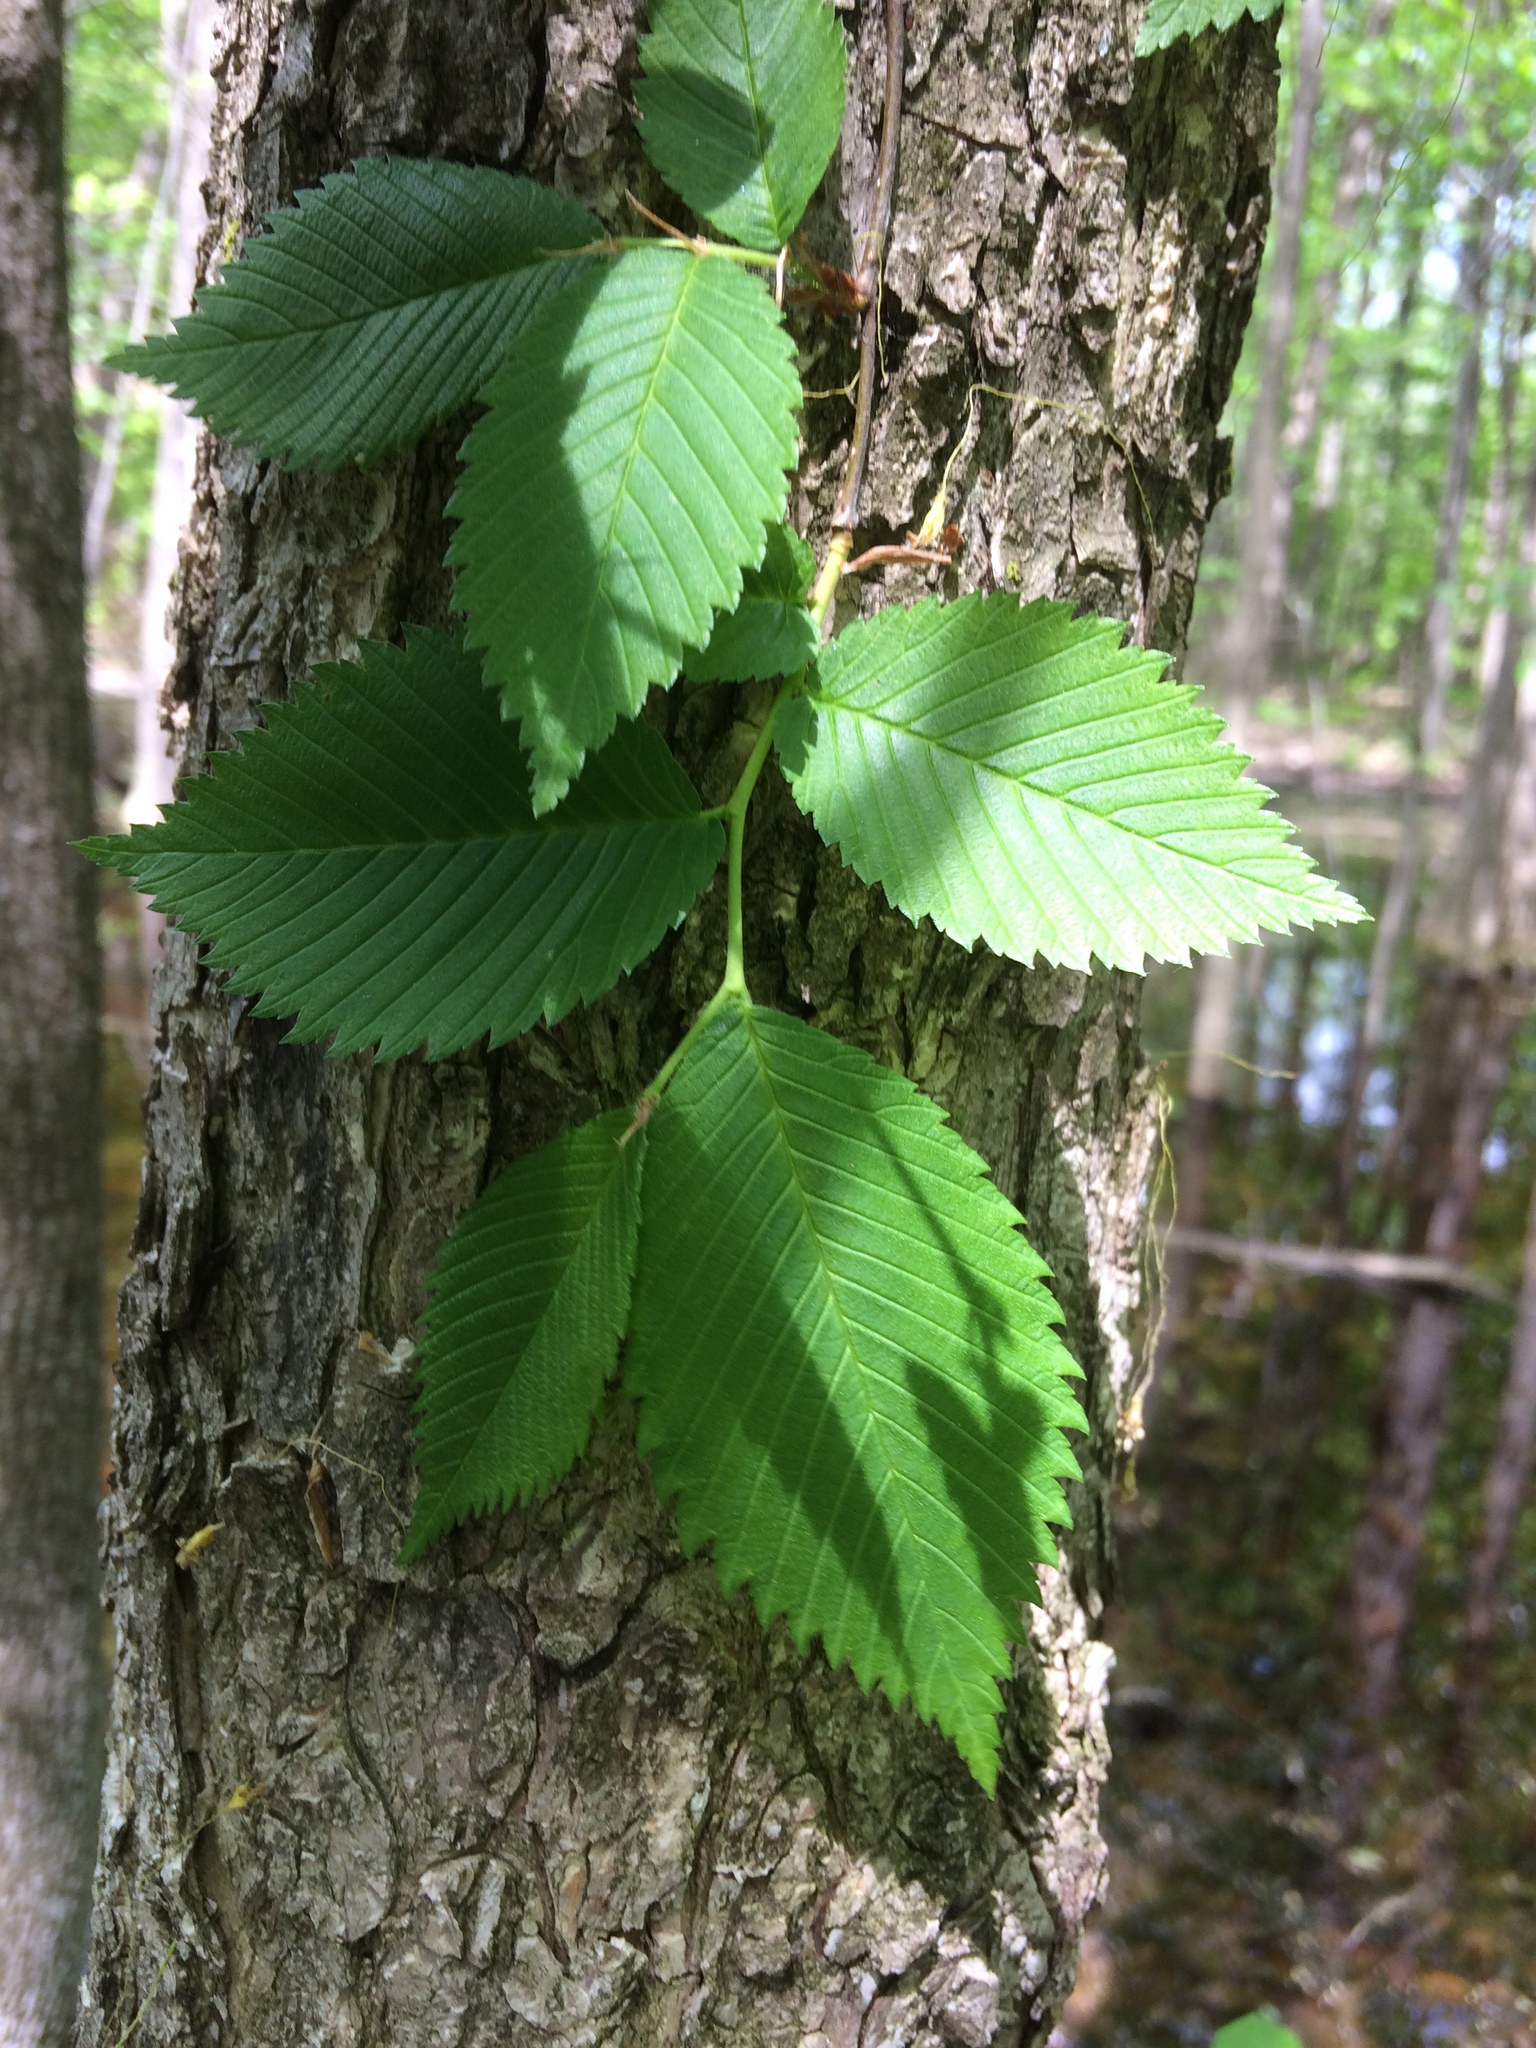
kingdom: Plantae
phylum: Tracheophyta
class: Magnoliopsida
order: Rosales
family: Ulmaceae
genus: Ulmus
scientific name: Ulmus americana
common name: American elm
